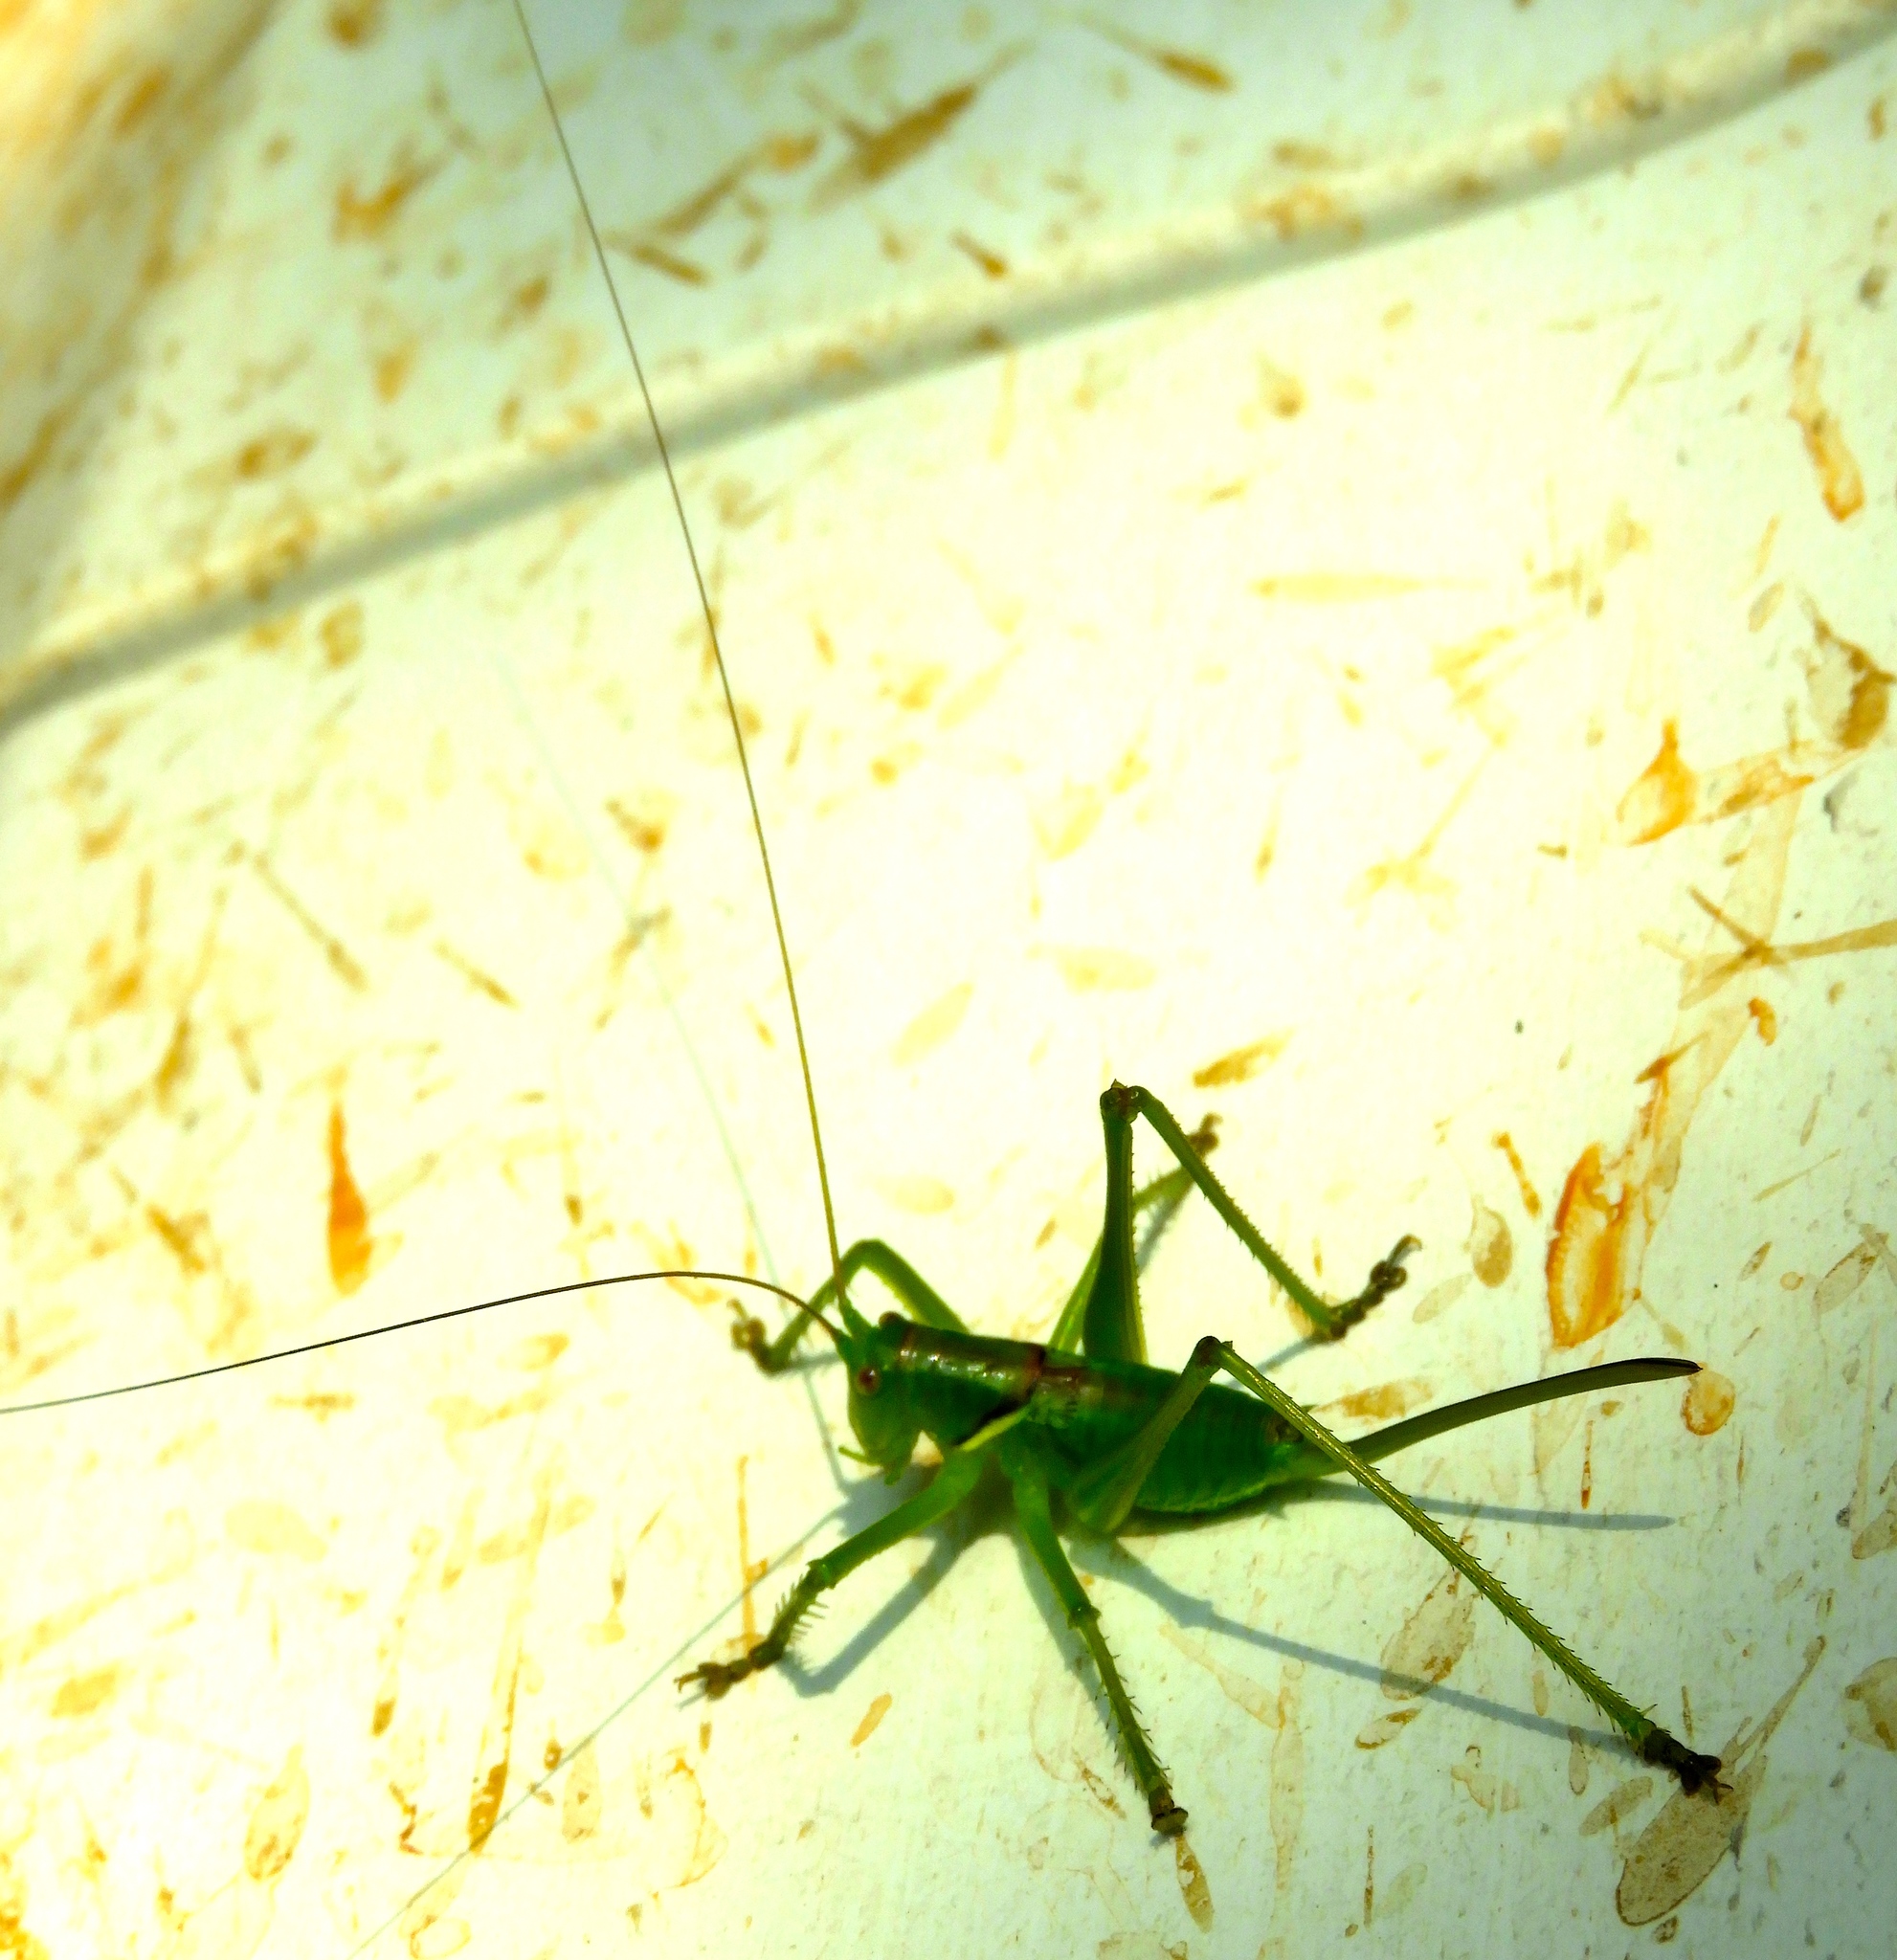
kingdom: Animalia
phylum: Arthropoda
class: Insecta
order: Orthoptera
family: Tettigoniidae
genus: Neobarrettia
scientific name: Neobarrettia sinaloae
